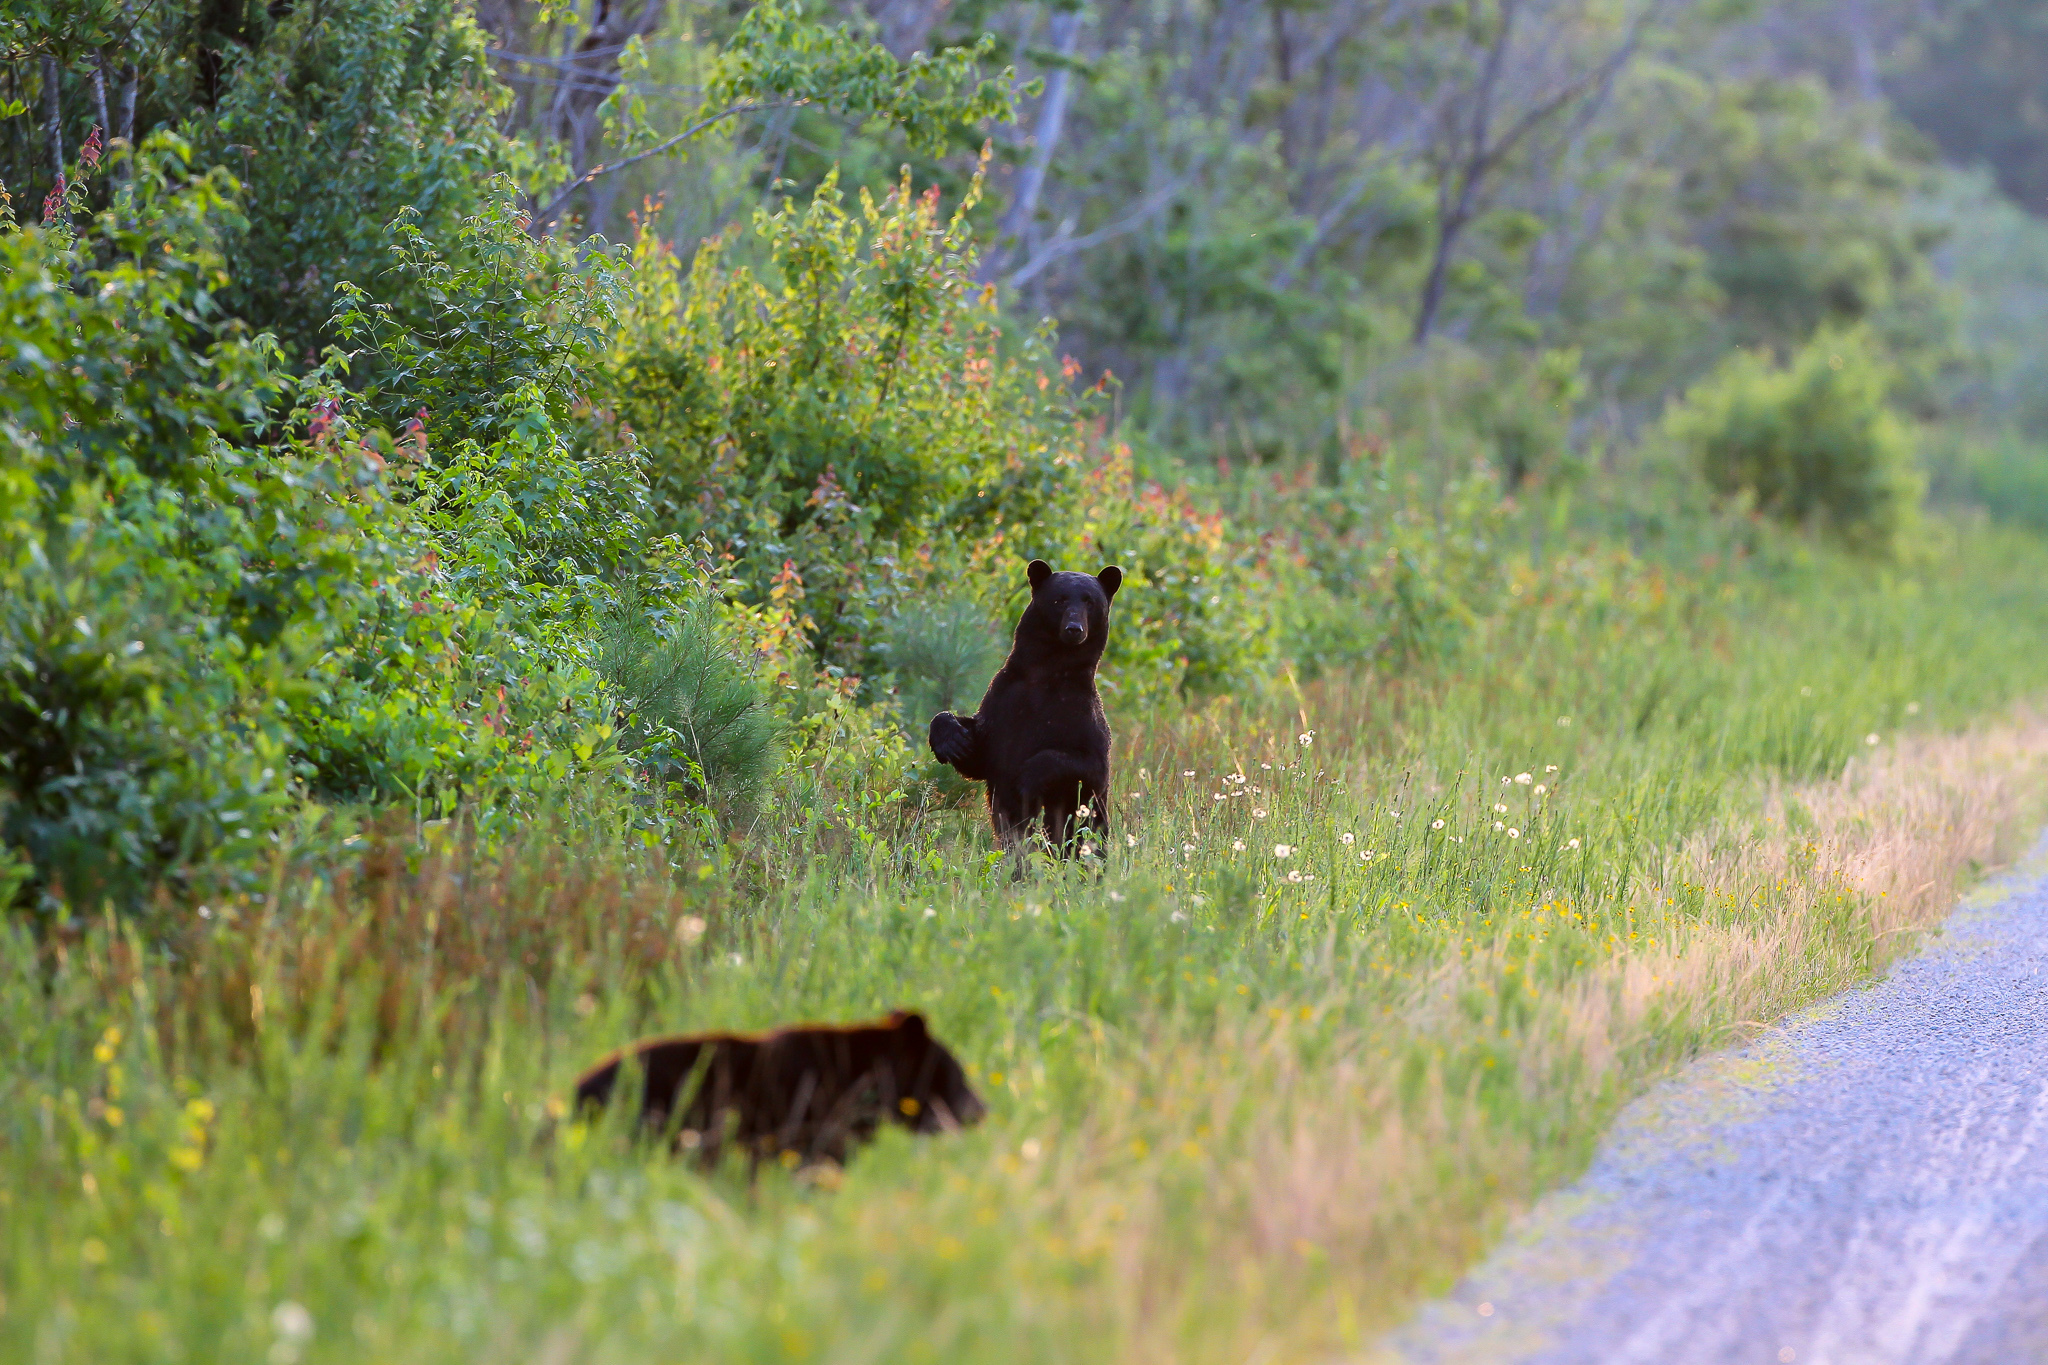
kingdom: Animalia
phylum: Chordata
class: Mammalia
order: Carnivora
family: Ursidae
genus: Ursus
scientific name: Ursus americanus
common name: American black bear
